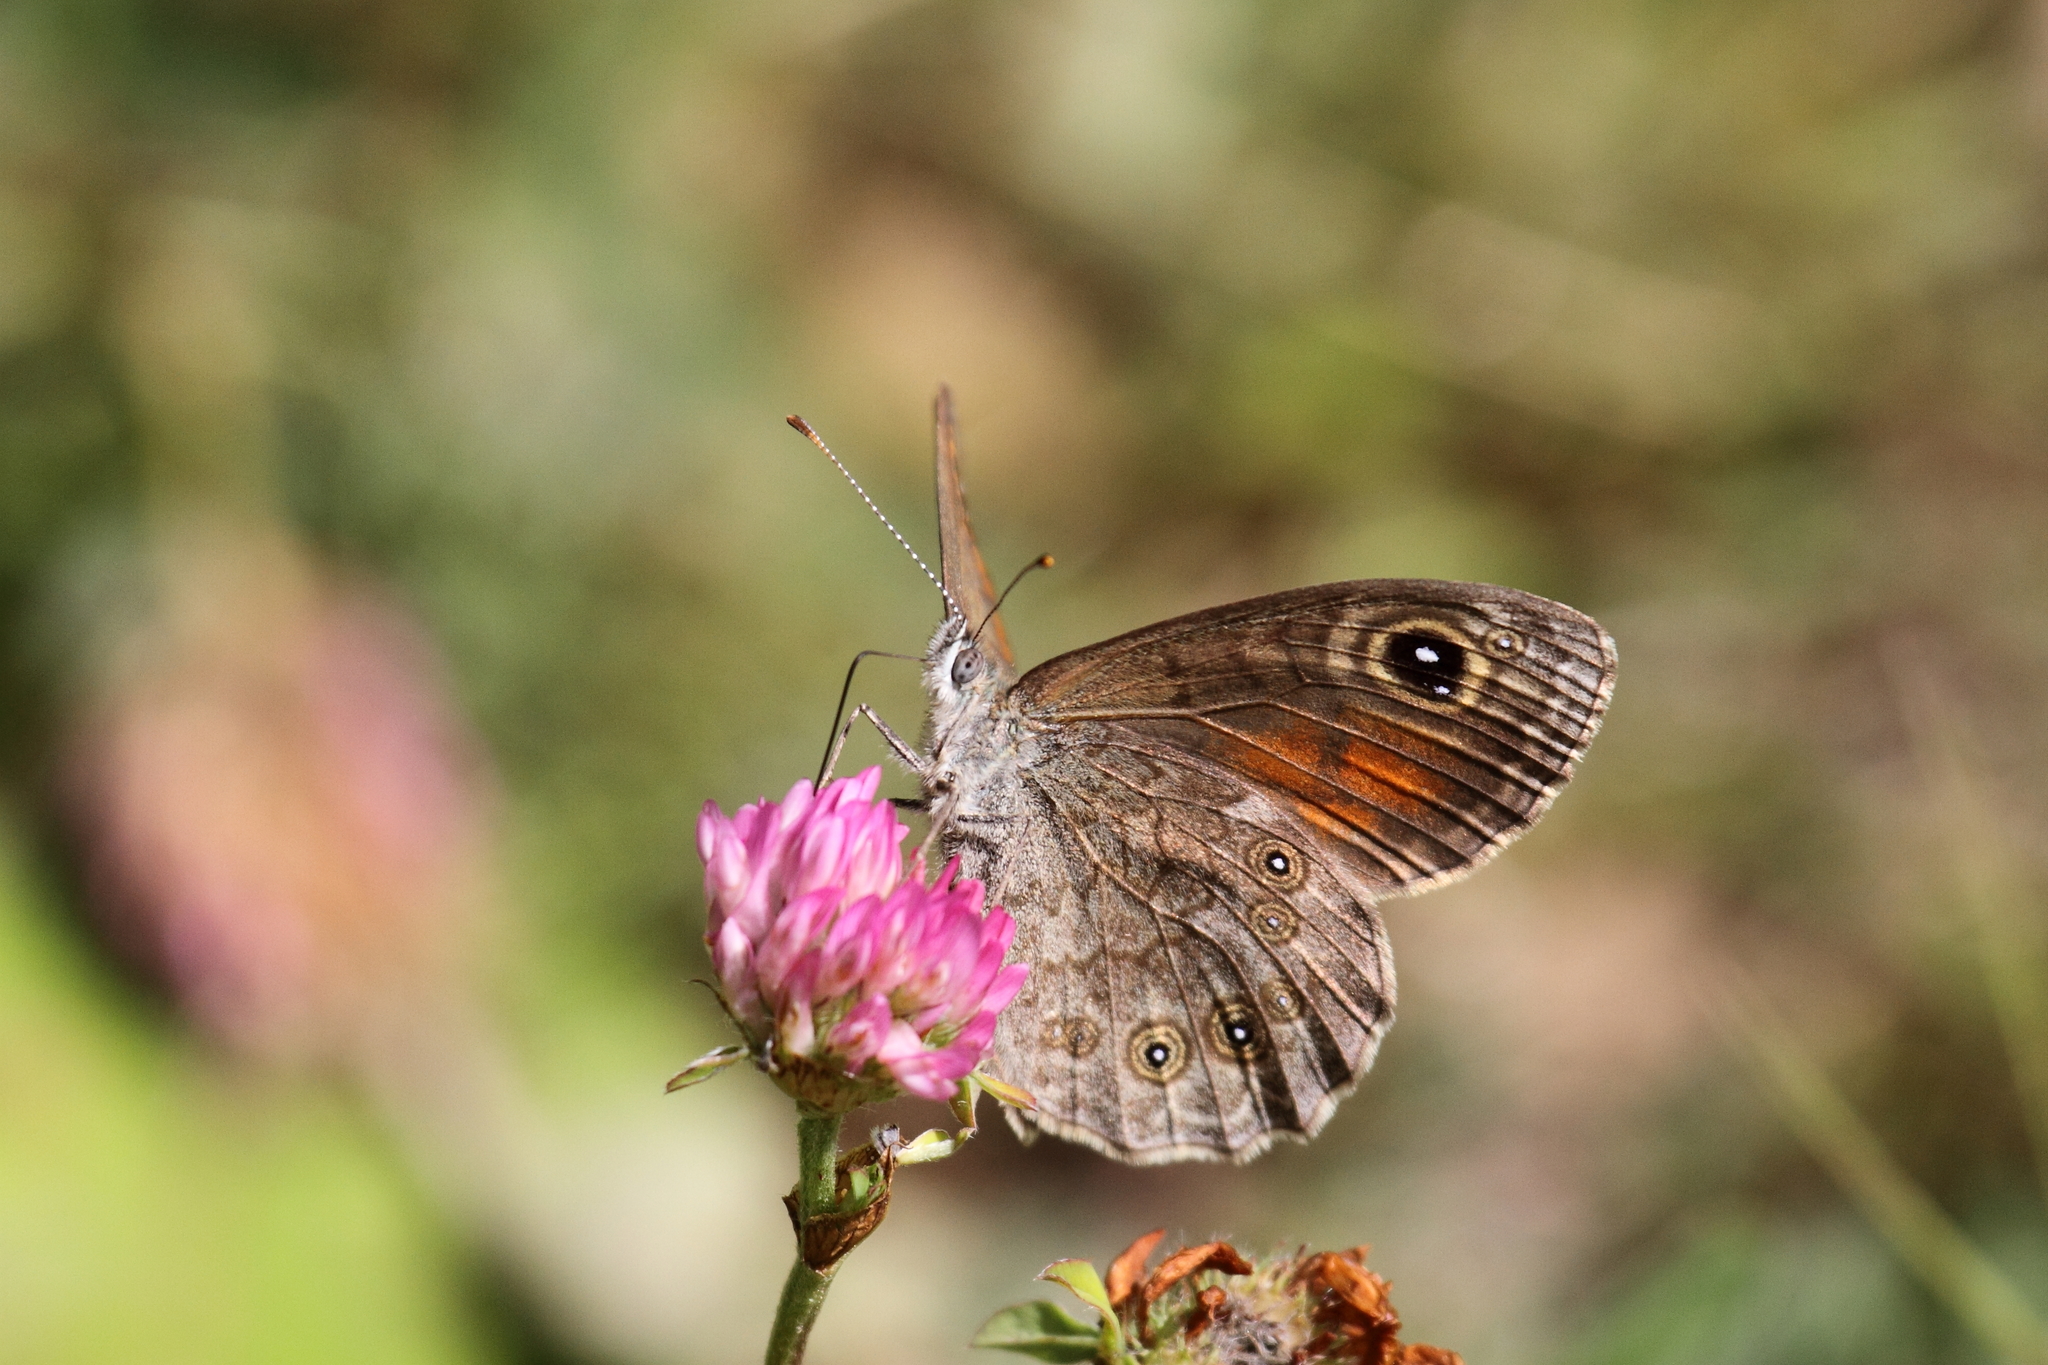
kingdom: Animalia
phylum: Arthropoda
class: Insecta
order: Lepidoptera
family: Nymphalidae
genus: Pararge
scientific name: Pararge Lasiommata maera
